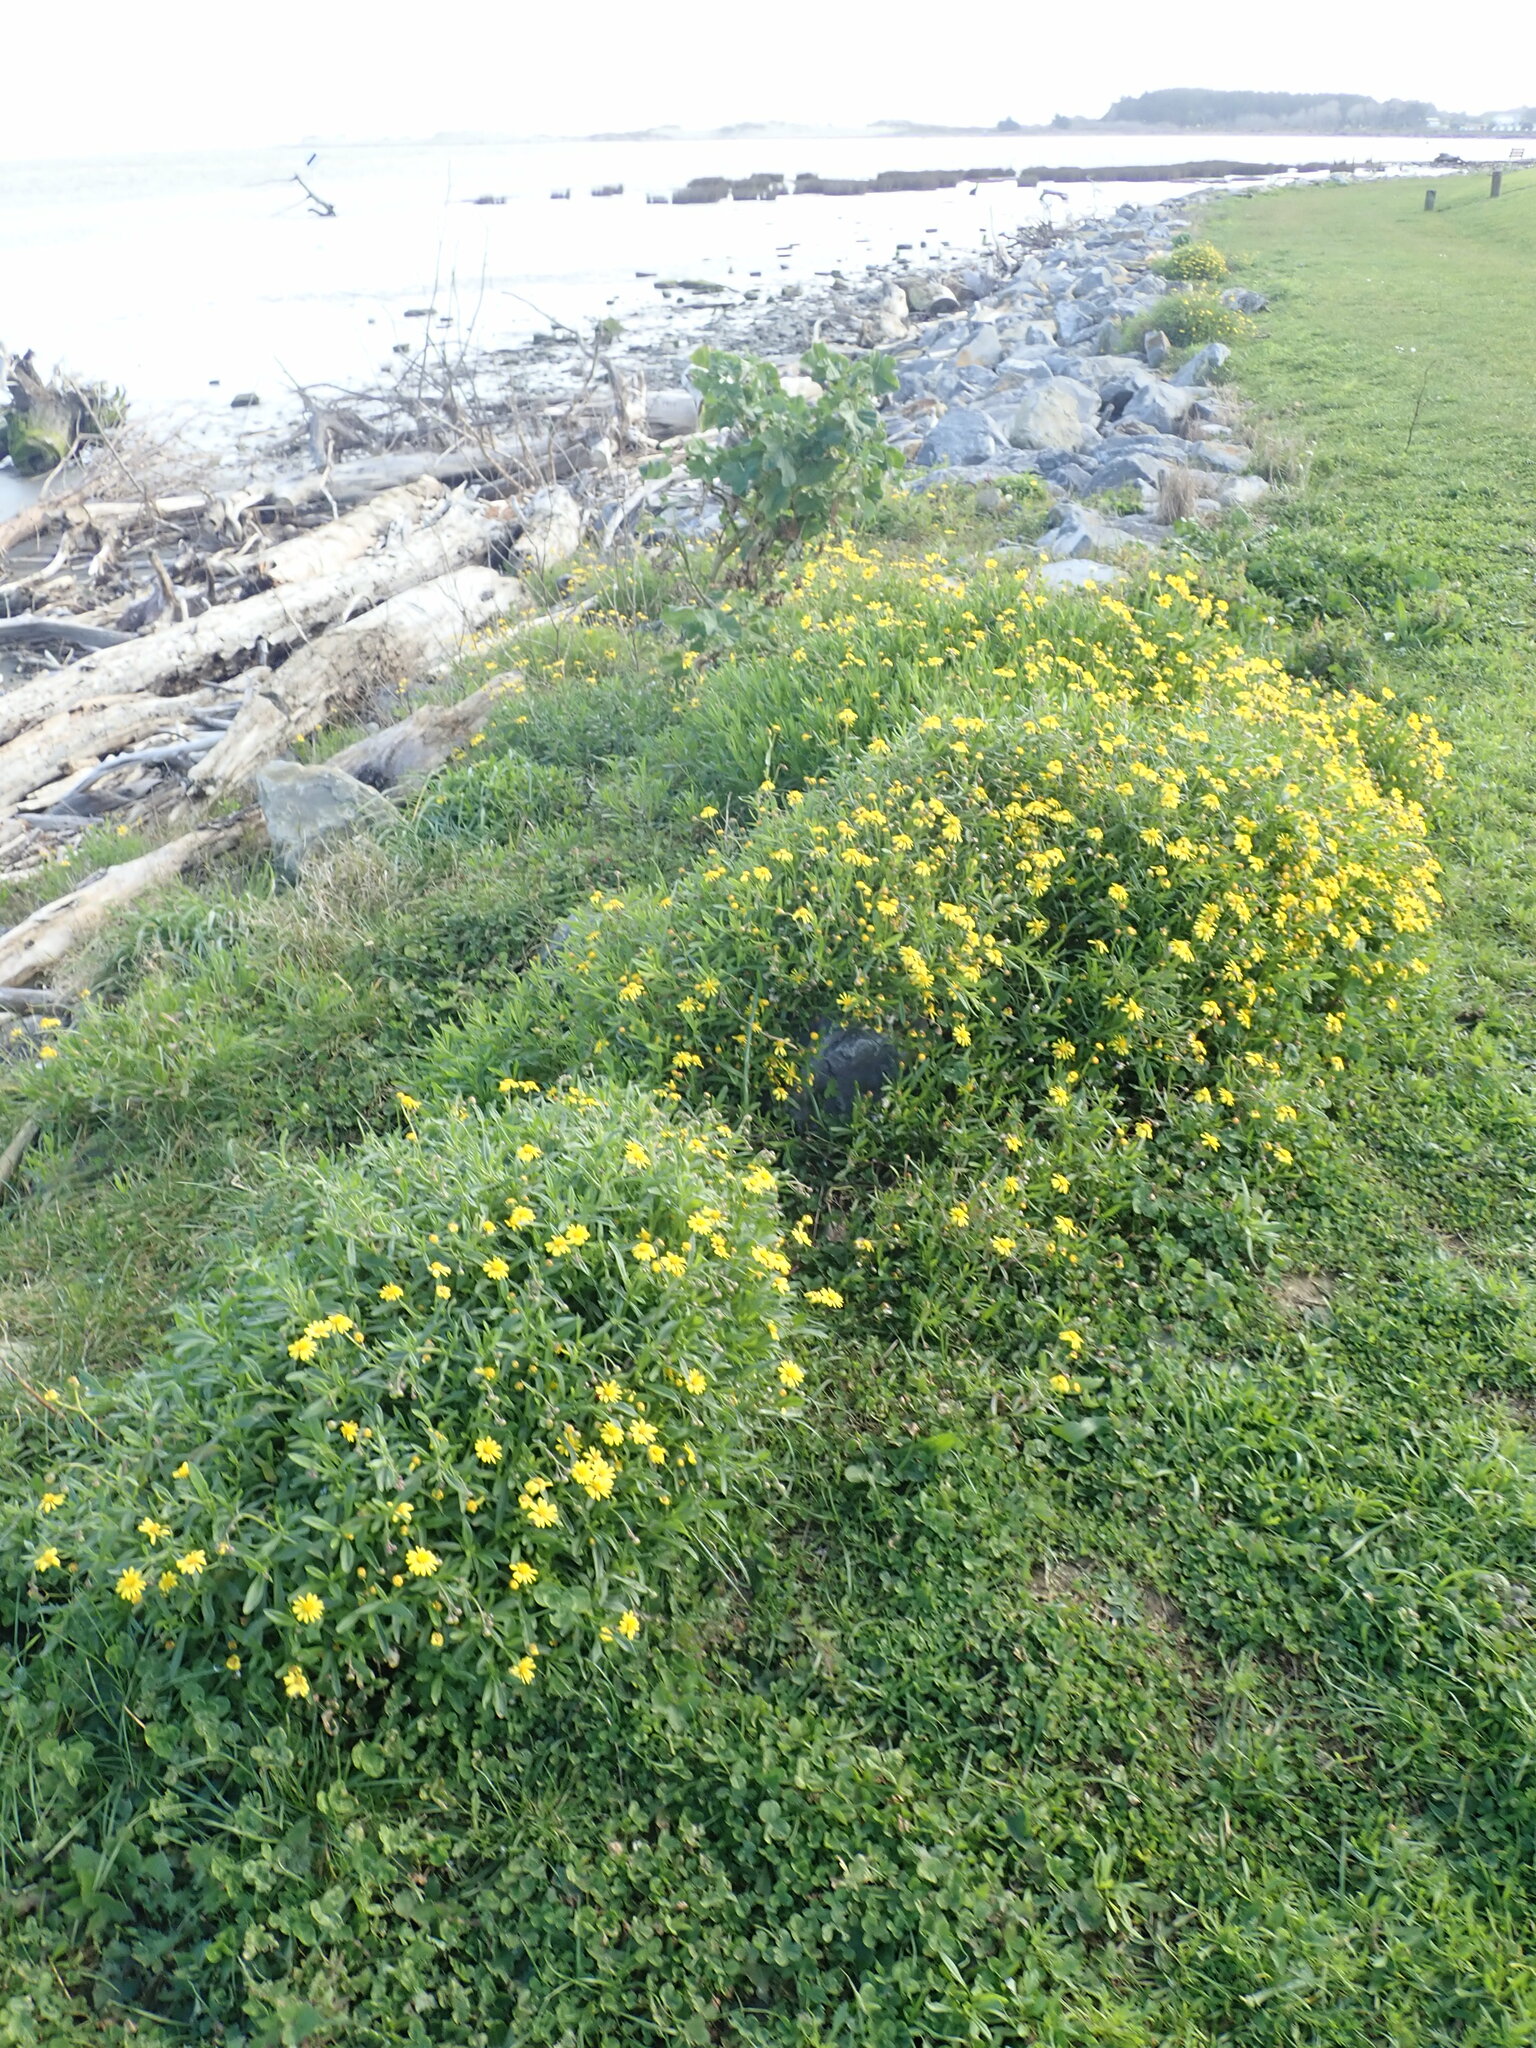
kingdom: Plantae
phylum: Tracheophyta
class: Magnoliopsida
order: Asterales
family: Asteraceae
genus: Senecio
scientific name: Senecio skirrhodon
